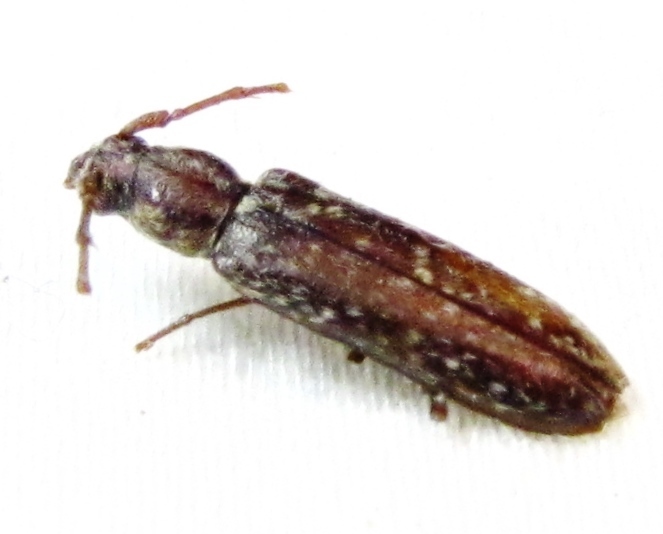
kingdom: Animalia
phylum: Arthropoda
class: Insecta
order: Coleoptera
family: Cerambycidae
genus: Anelaphus
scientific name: Anelaphus pumilus
